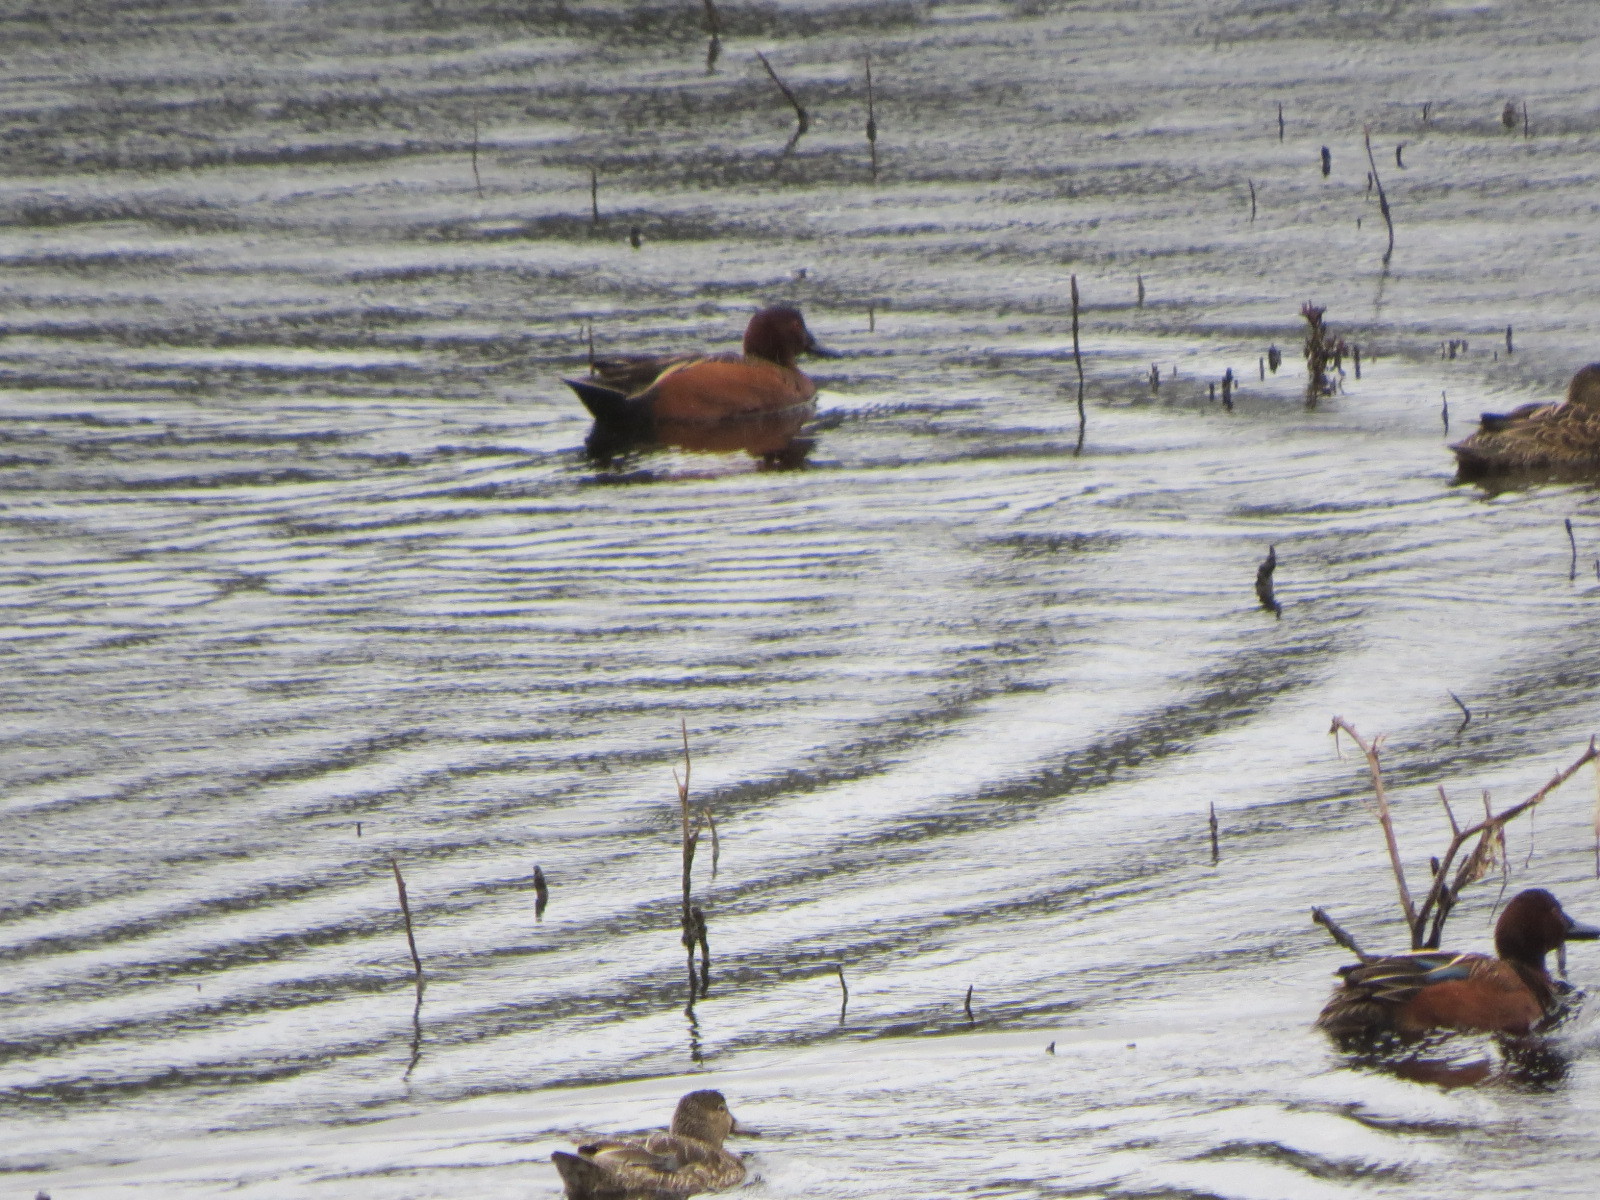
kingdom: Animalia
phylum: Chordata
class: Aves
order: Anseriformes
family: Anatidae
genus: Spatula
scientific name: Spatula cyanoptera
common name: Cinnamon teal
